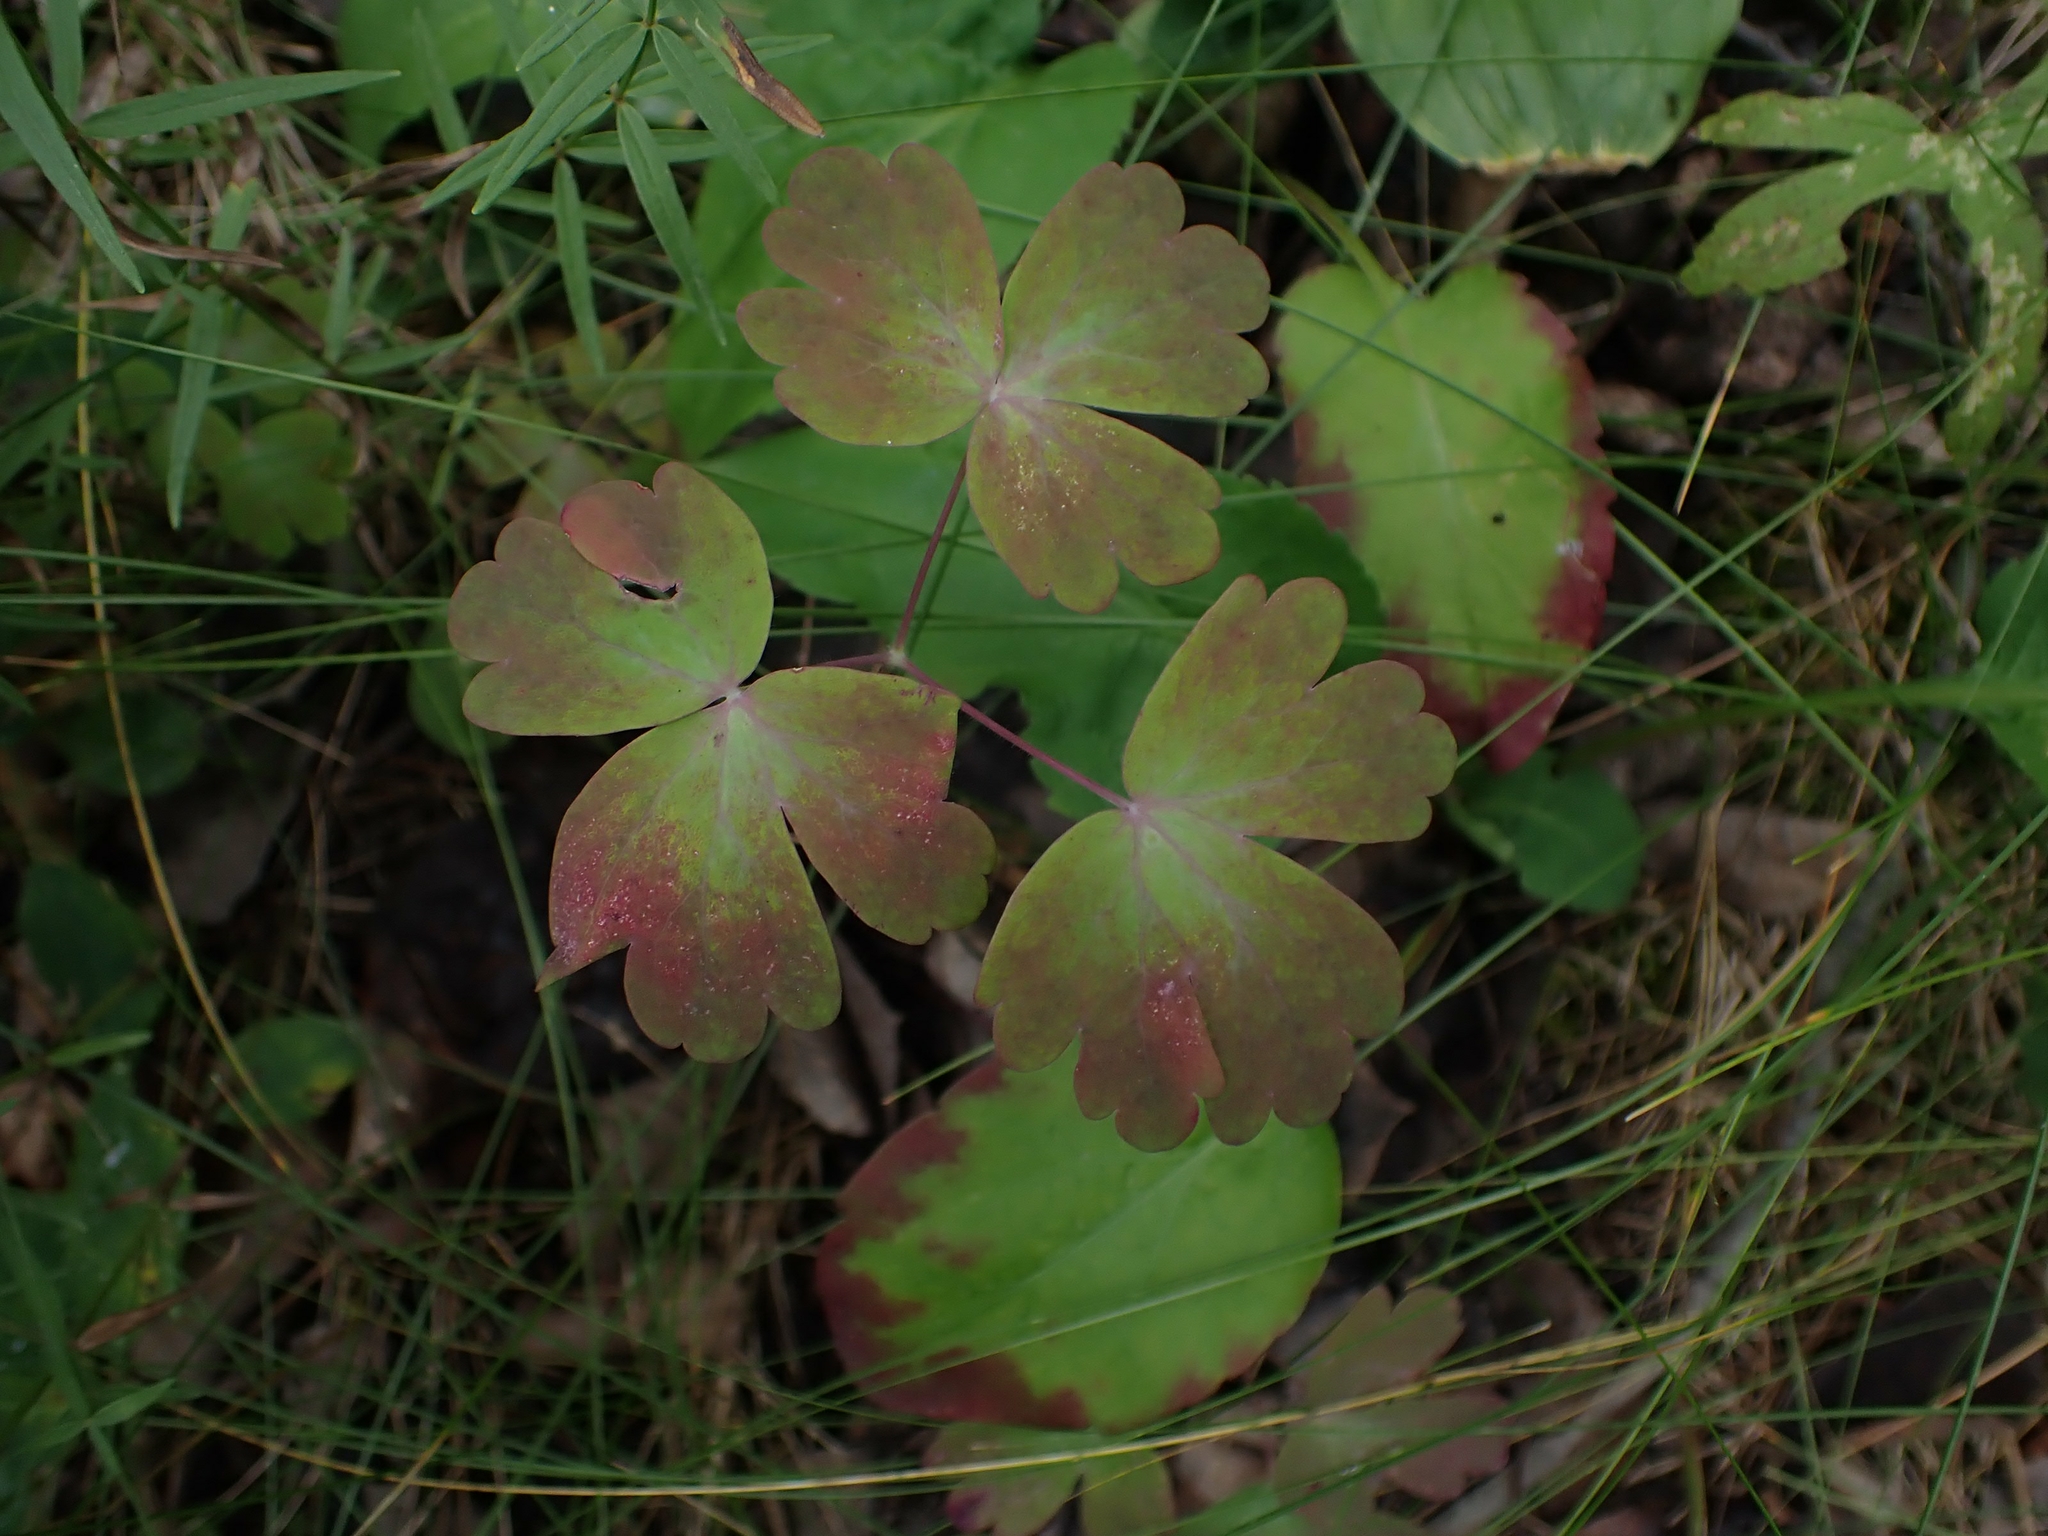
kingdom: Plantae
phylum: Tracheophyta
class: Magnoliopsida
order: Ranunculales
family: Ranunculaceae
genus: Aquilegia
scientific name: Aquilegia canadensis
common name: American columbine
